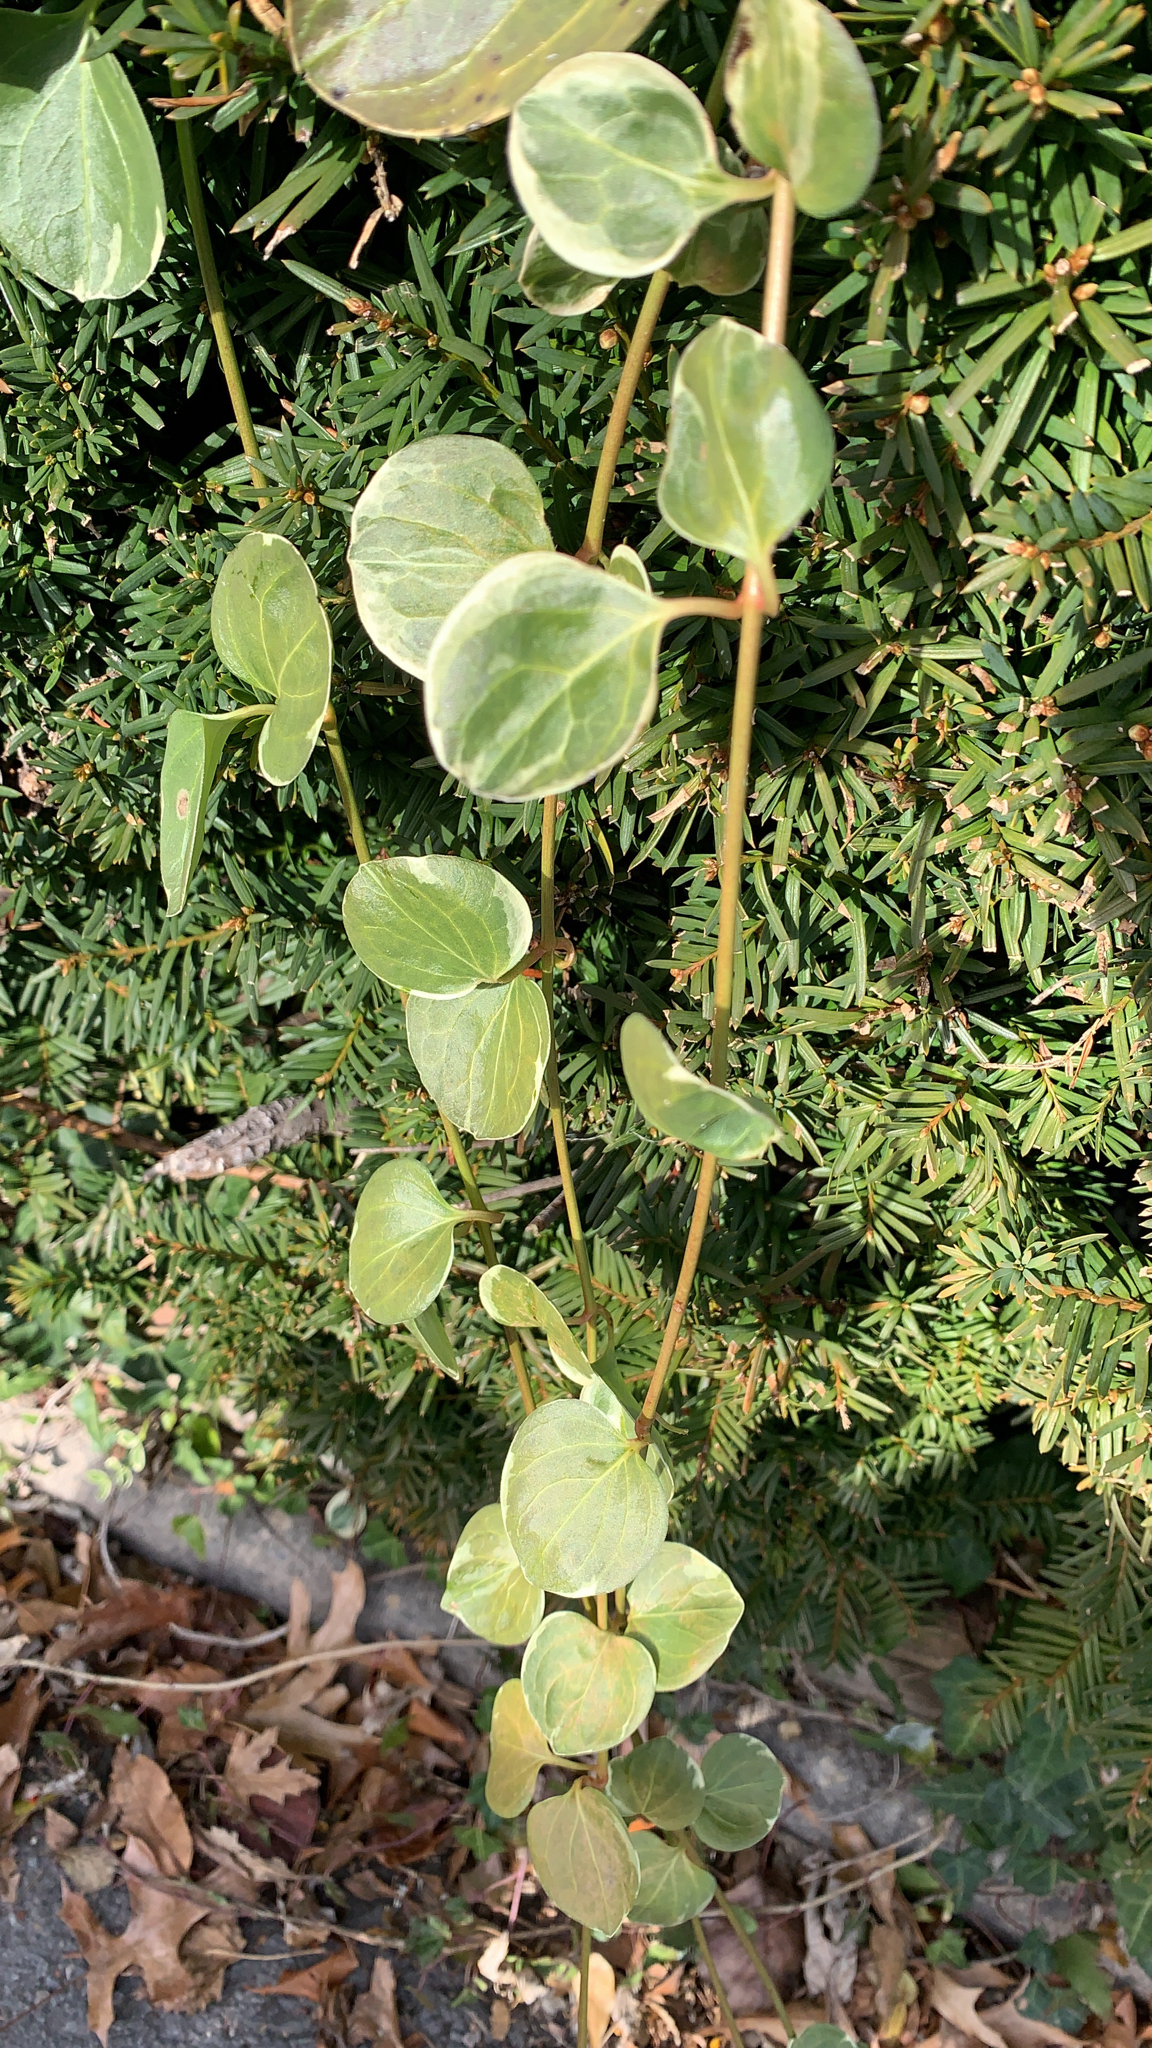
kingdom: Plantae
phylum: Tracheophyta
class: Magnoliopsida
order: Gentianales
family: Apocynaceae
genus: Vinca
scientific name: Vinca major
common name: Greater periwinkle
